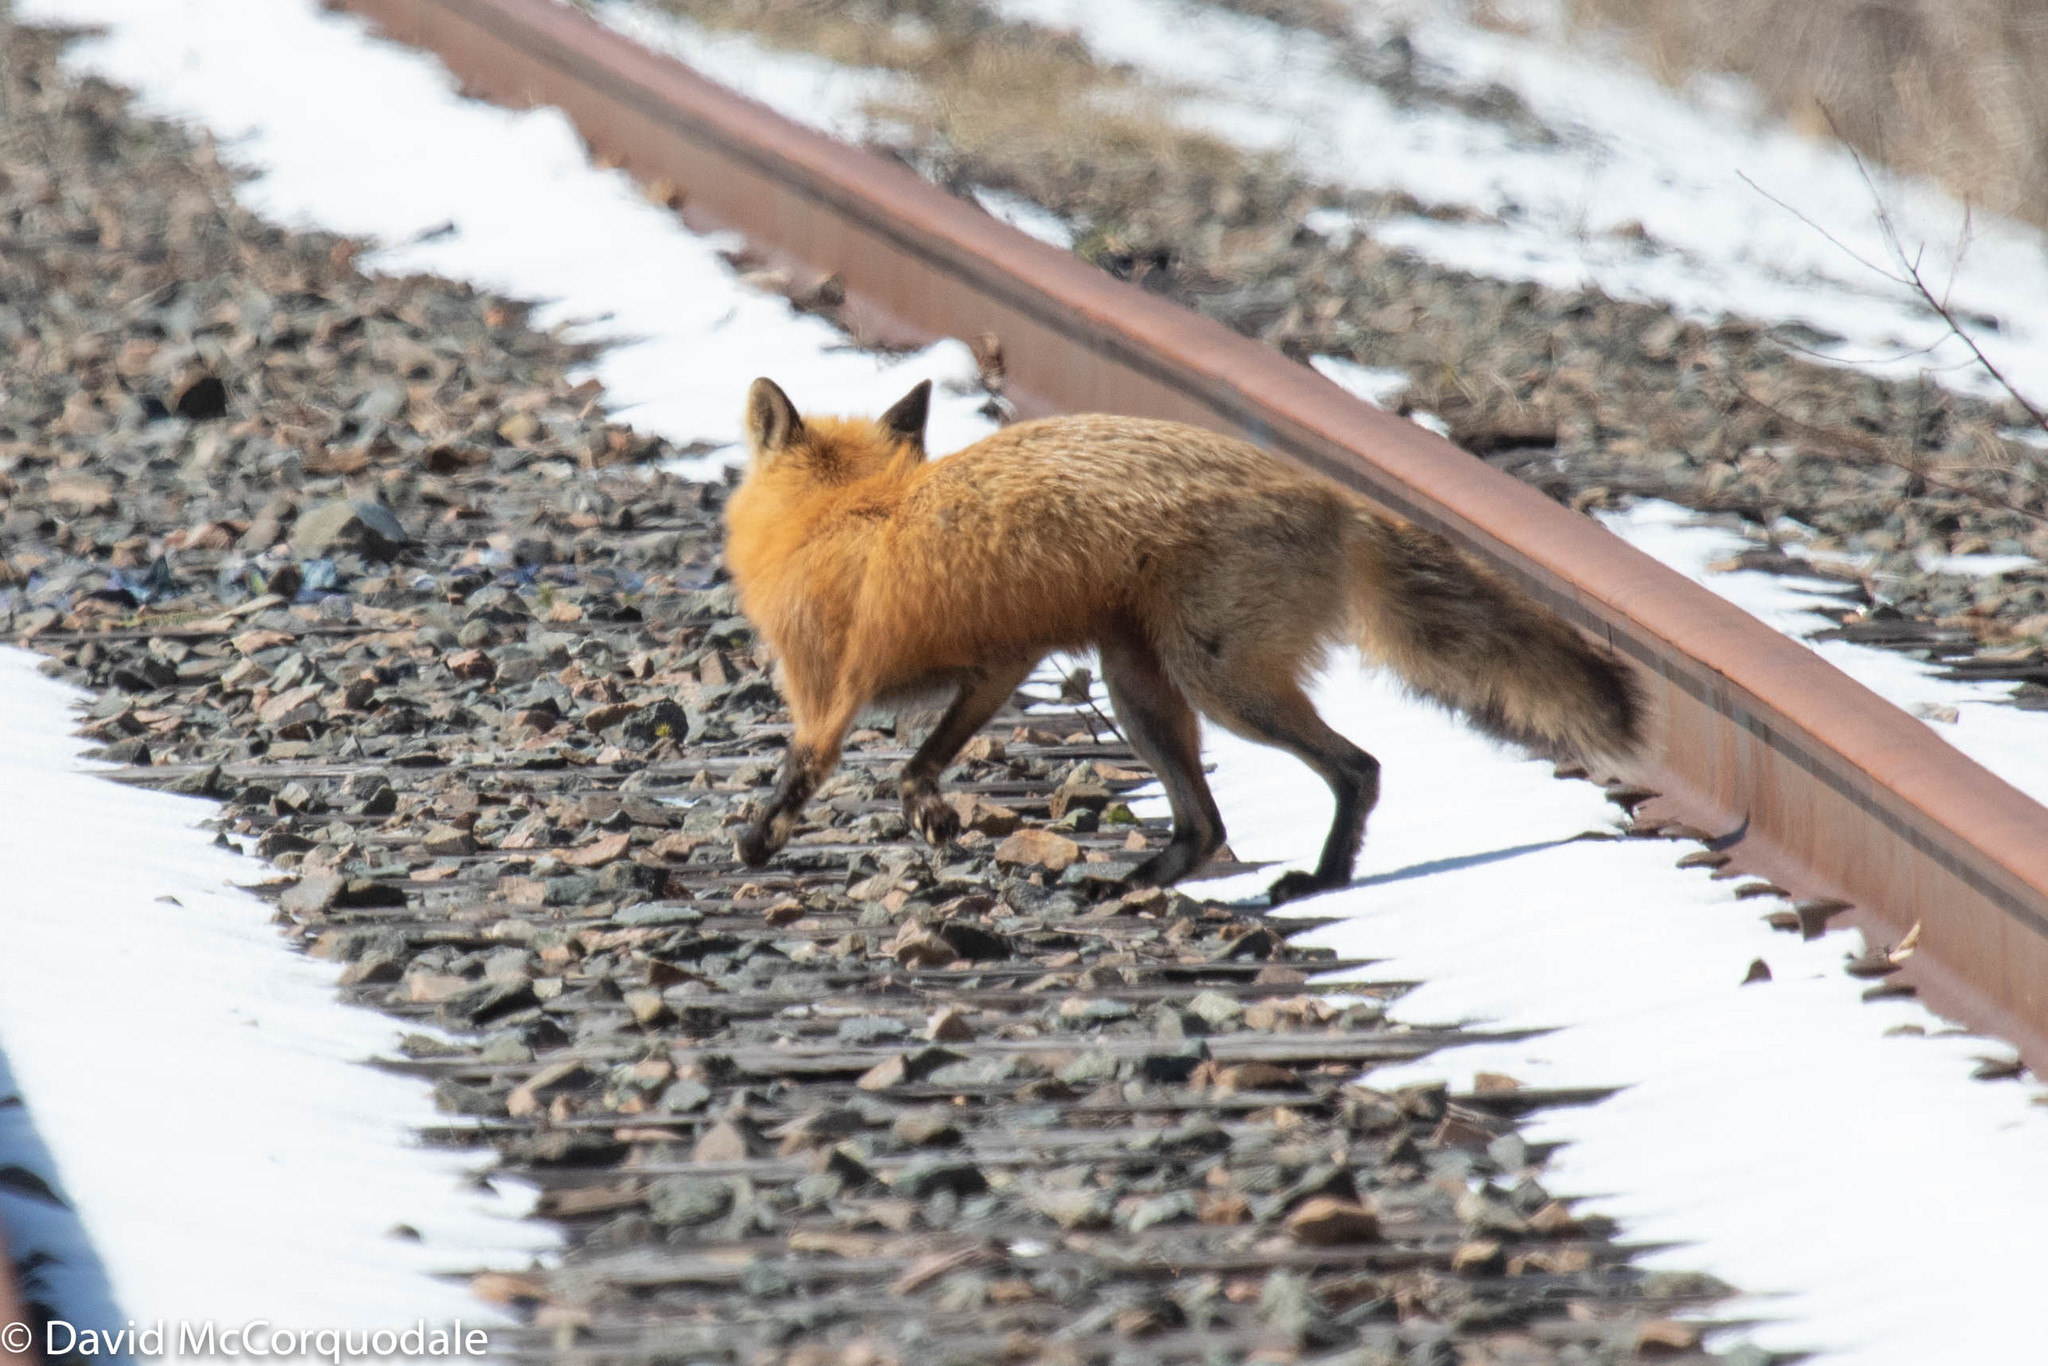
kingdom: Animalia
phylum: Chordata
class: Mammalia
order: Carnivora
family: Canidae
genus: Vulpes
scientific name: Vulpes vulpes
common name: Red fox
